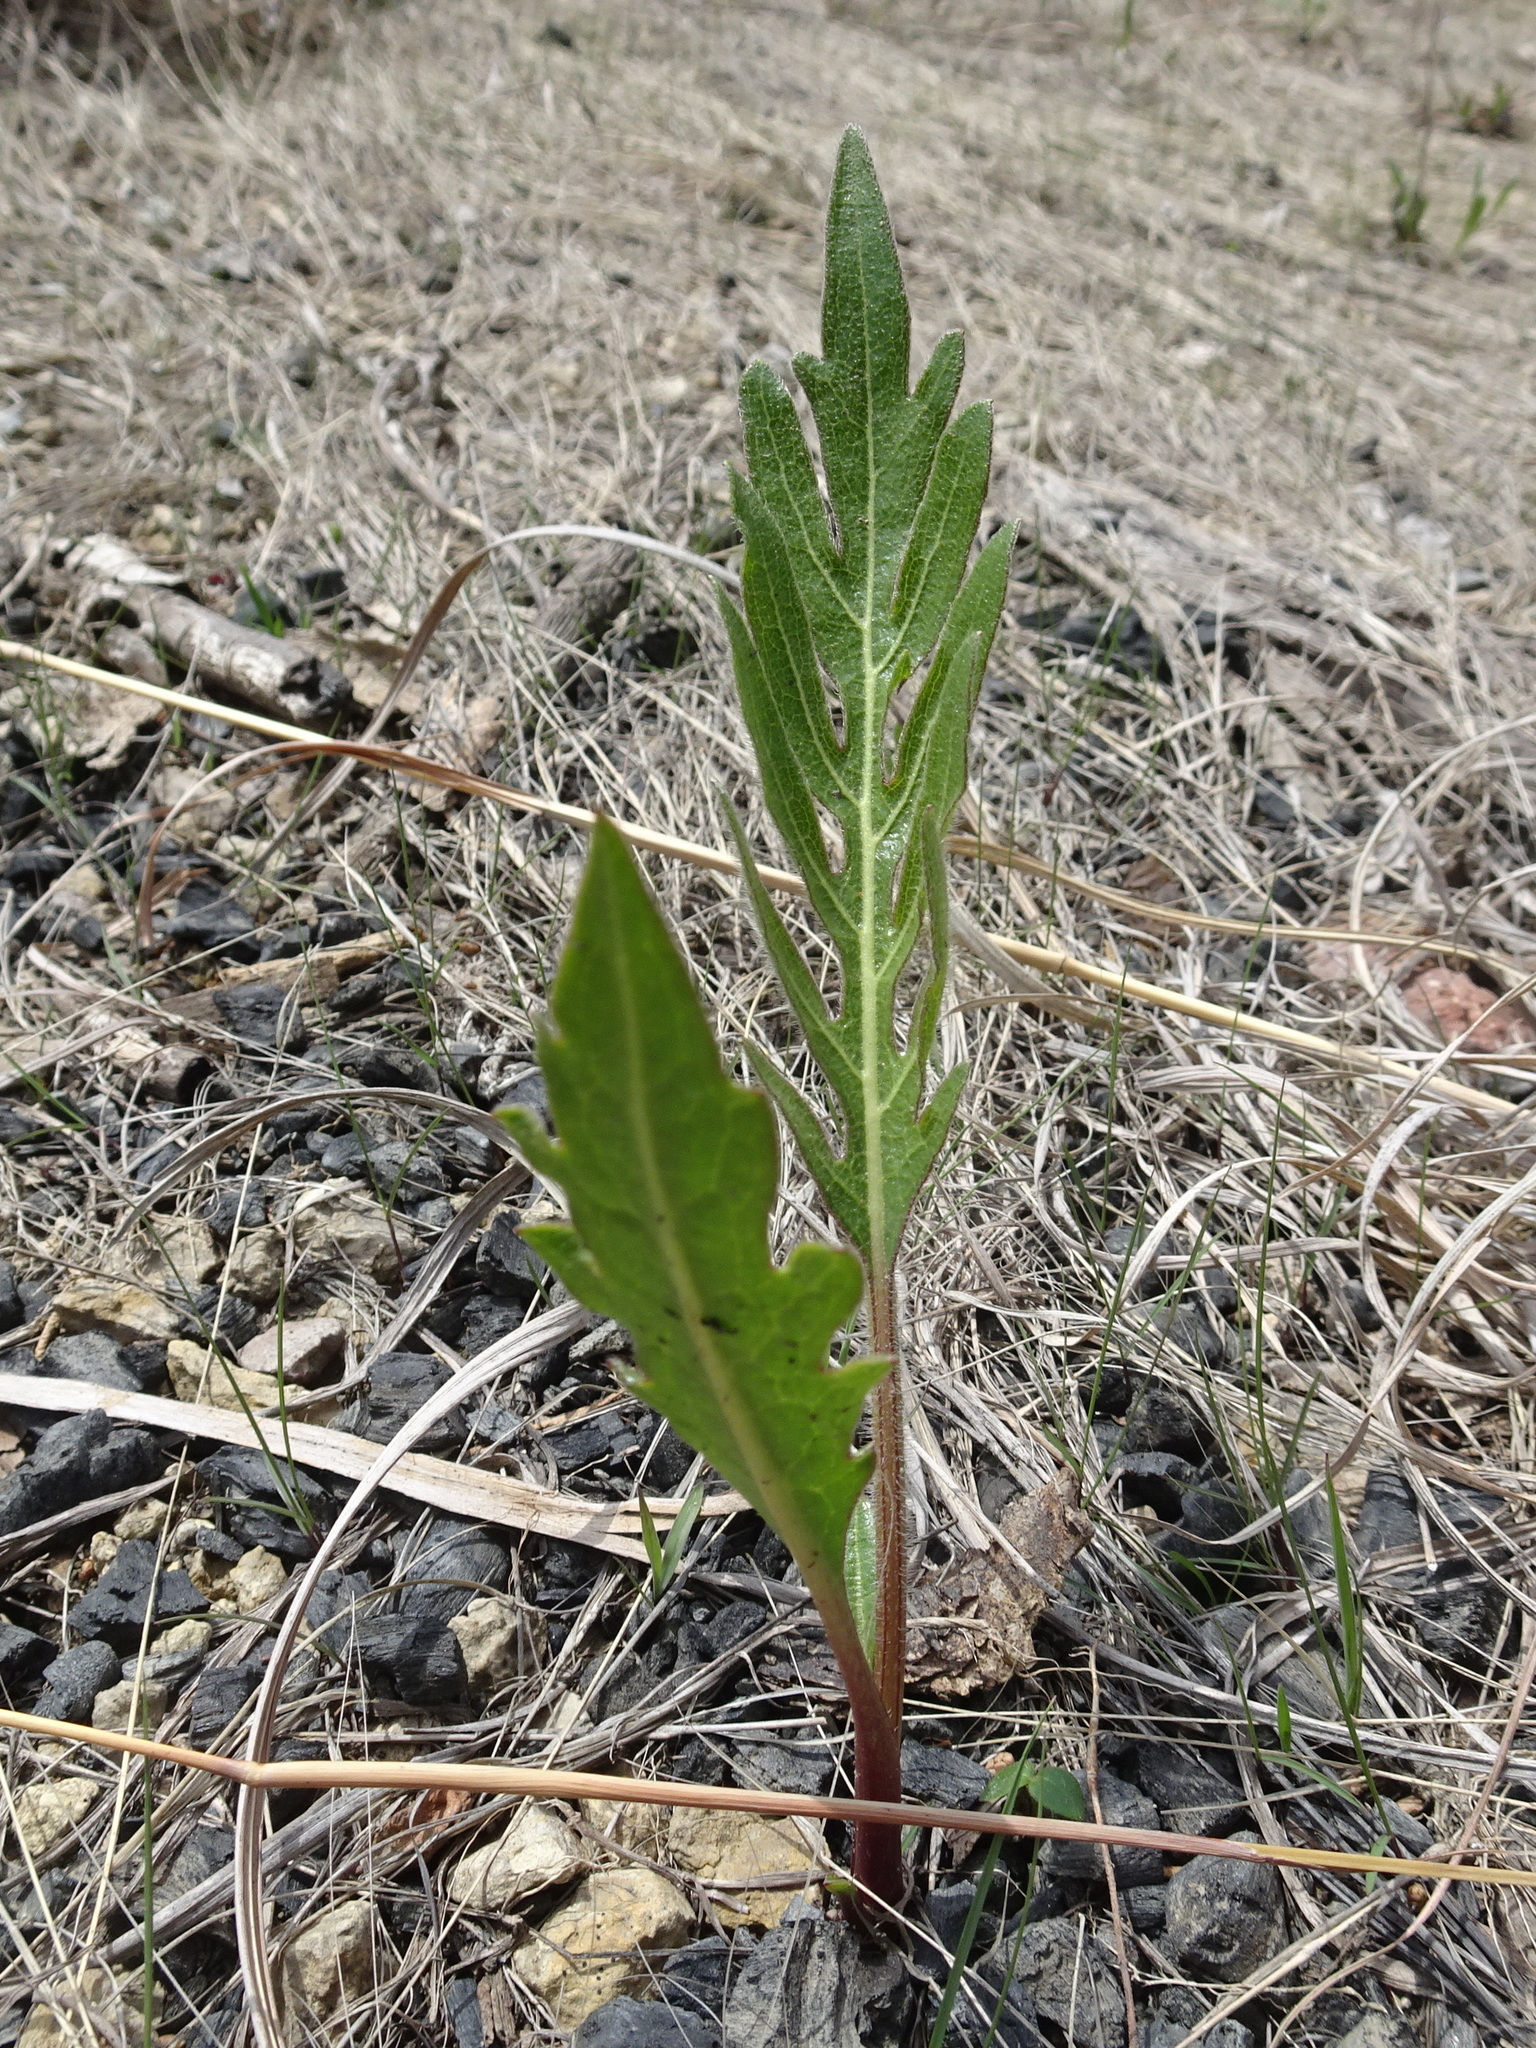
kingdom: Plantae
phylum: Tracheophyta
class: Magnoliopsida
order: Asterales
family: Asteraceae
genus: Silphium
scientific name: Silphium laciniatum
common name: Polarplant
